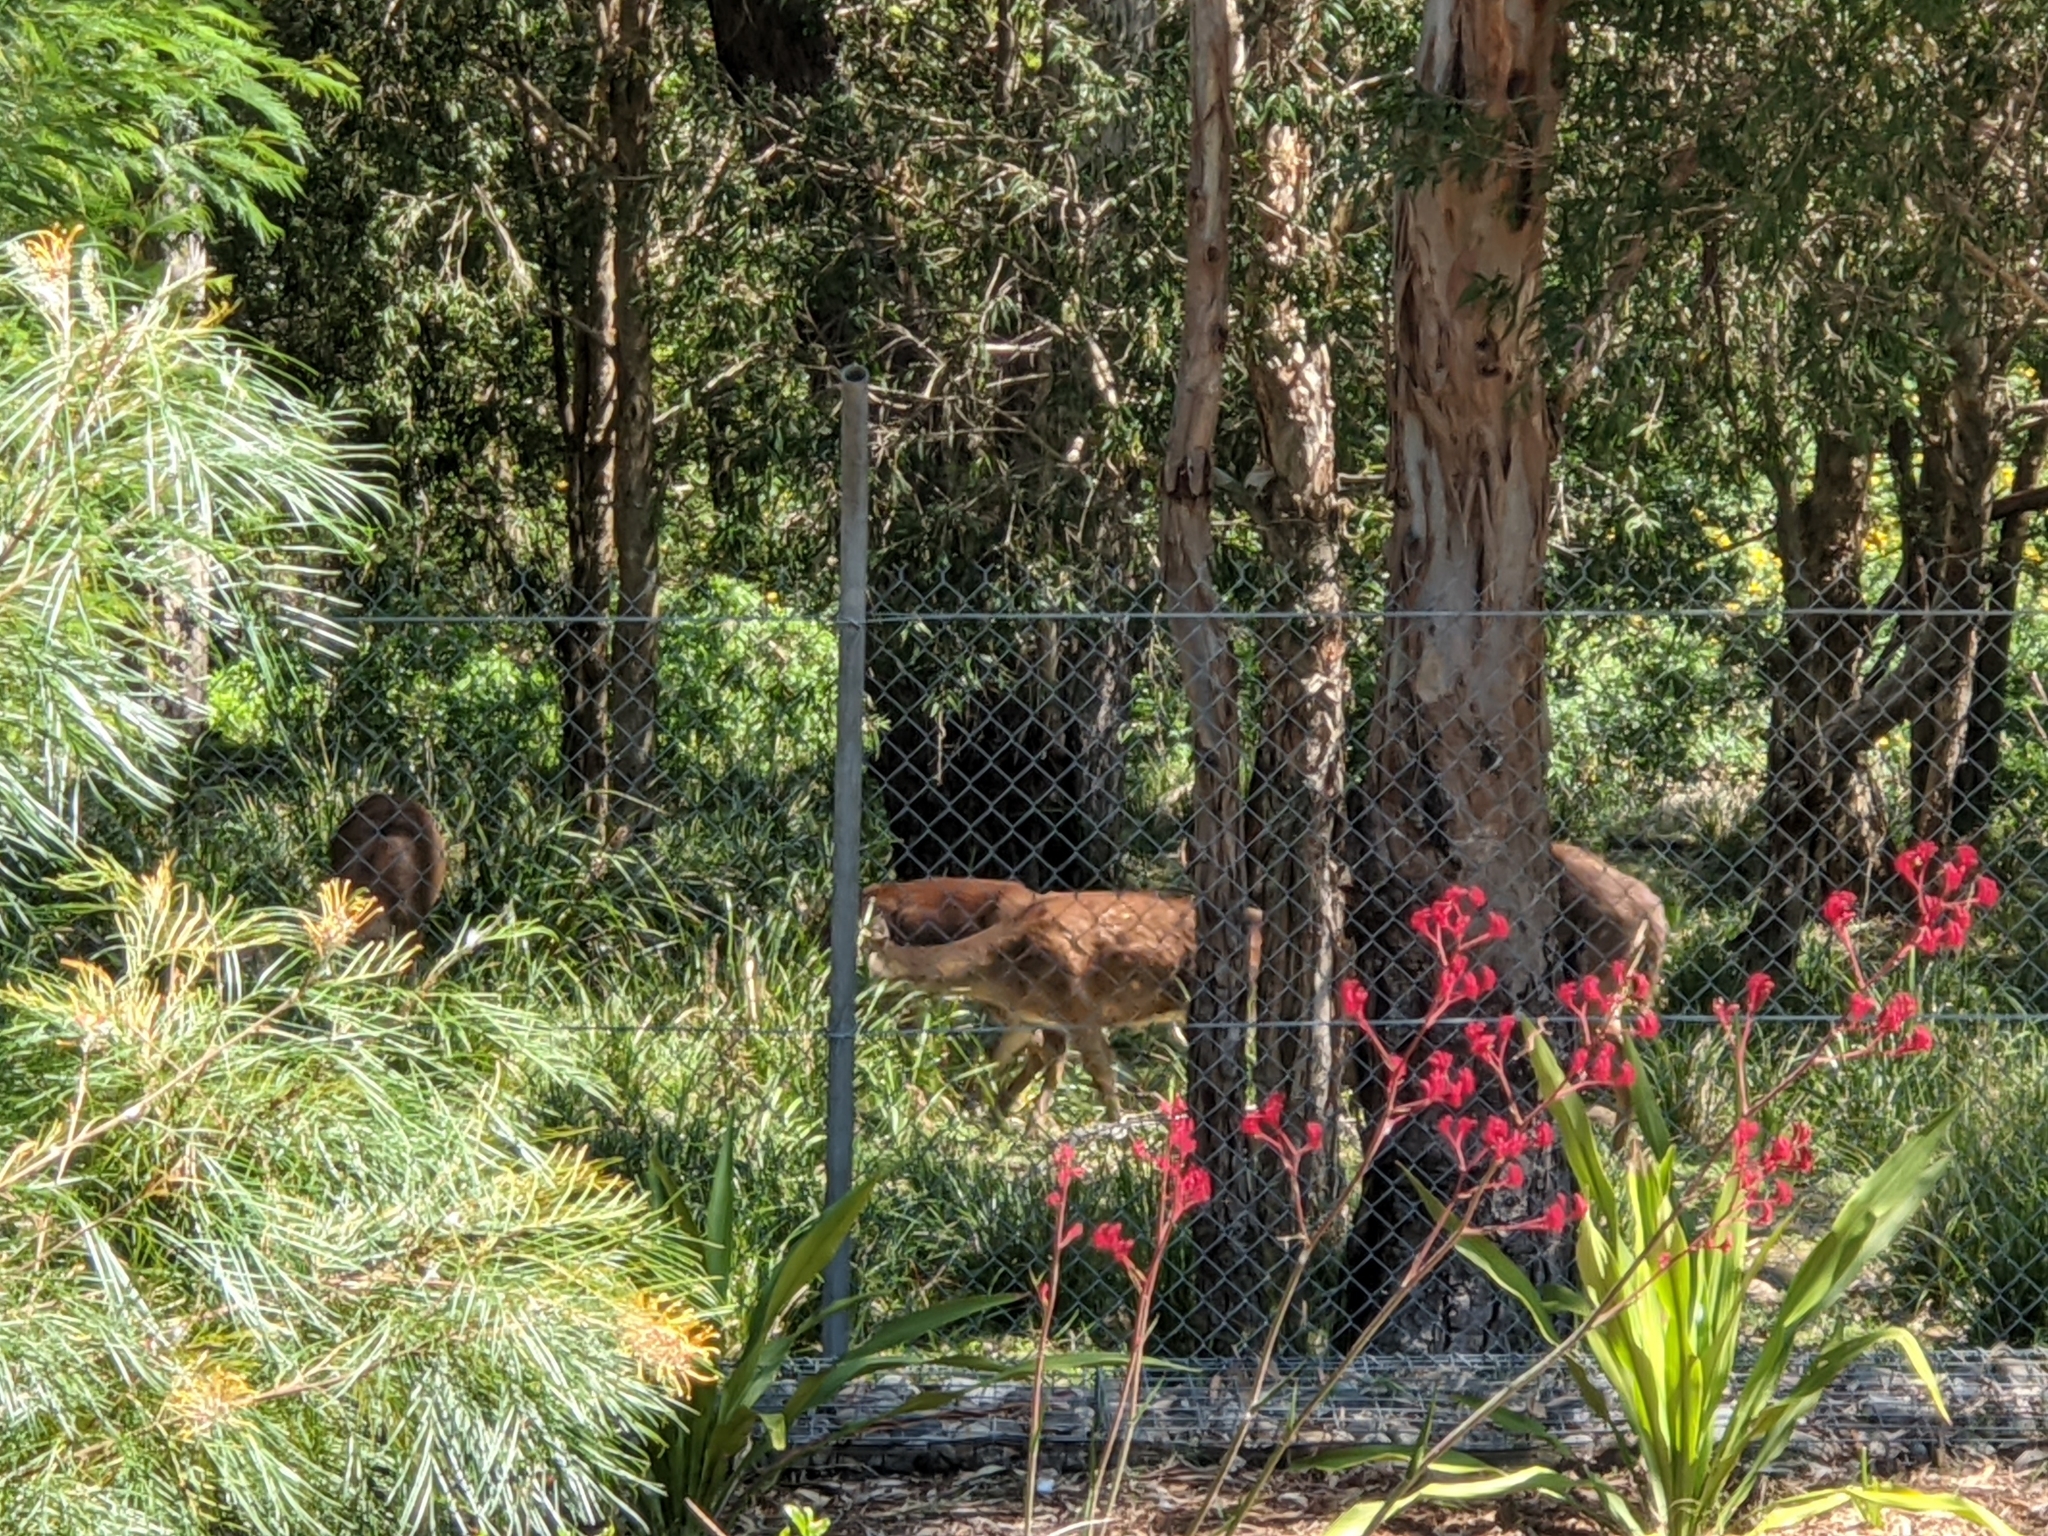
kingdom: Animalia
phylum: Chordata
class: Mammalia
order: Artiodactyla
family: Cervidae
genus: Rusa
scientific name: Rusa timorensis
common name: Javan rusa
